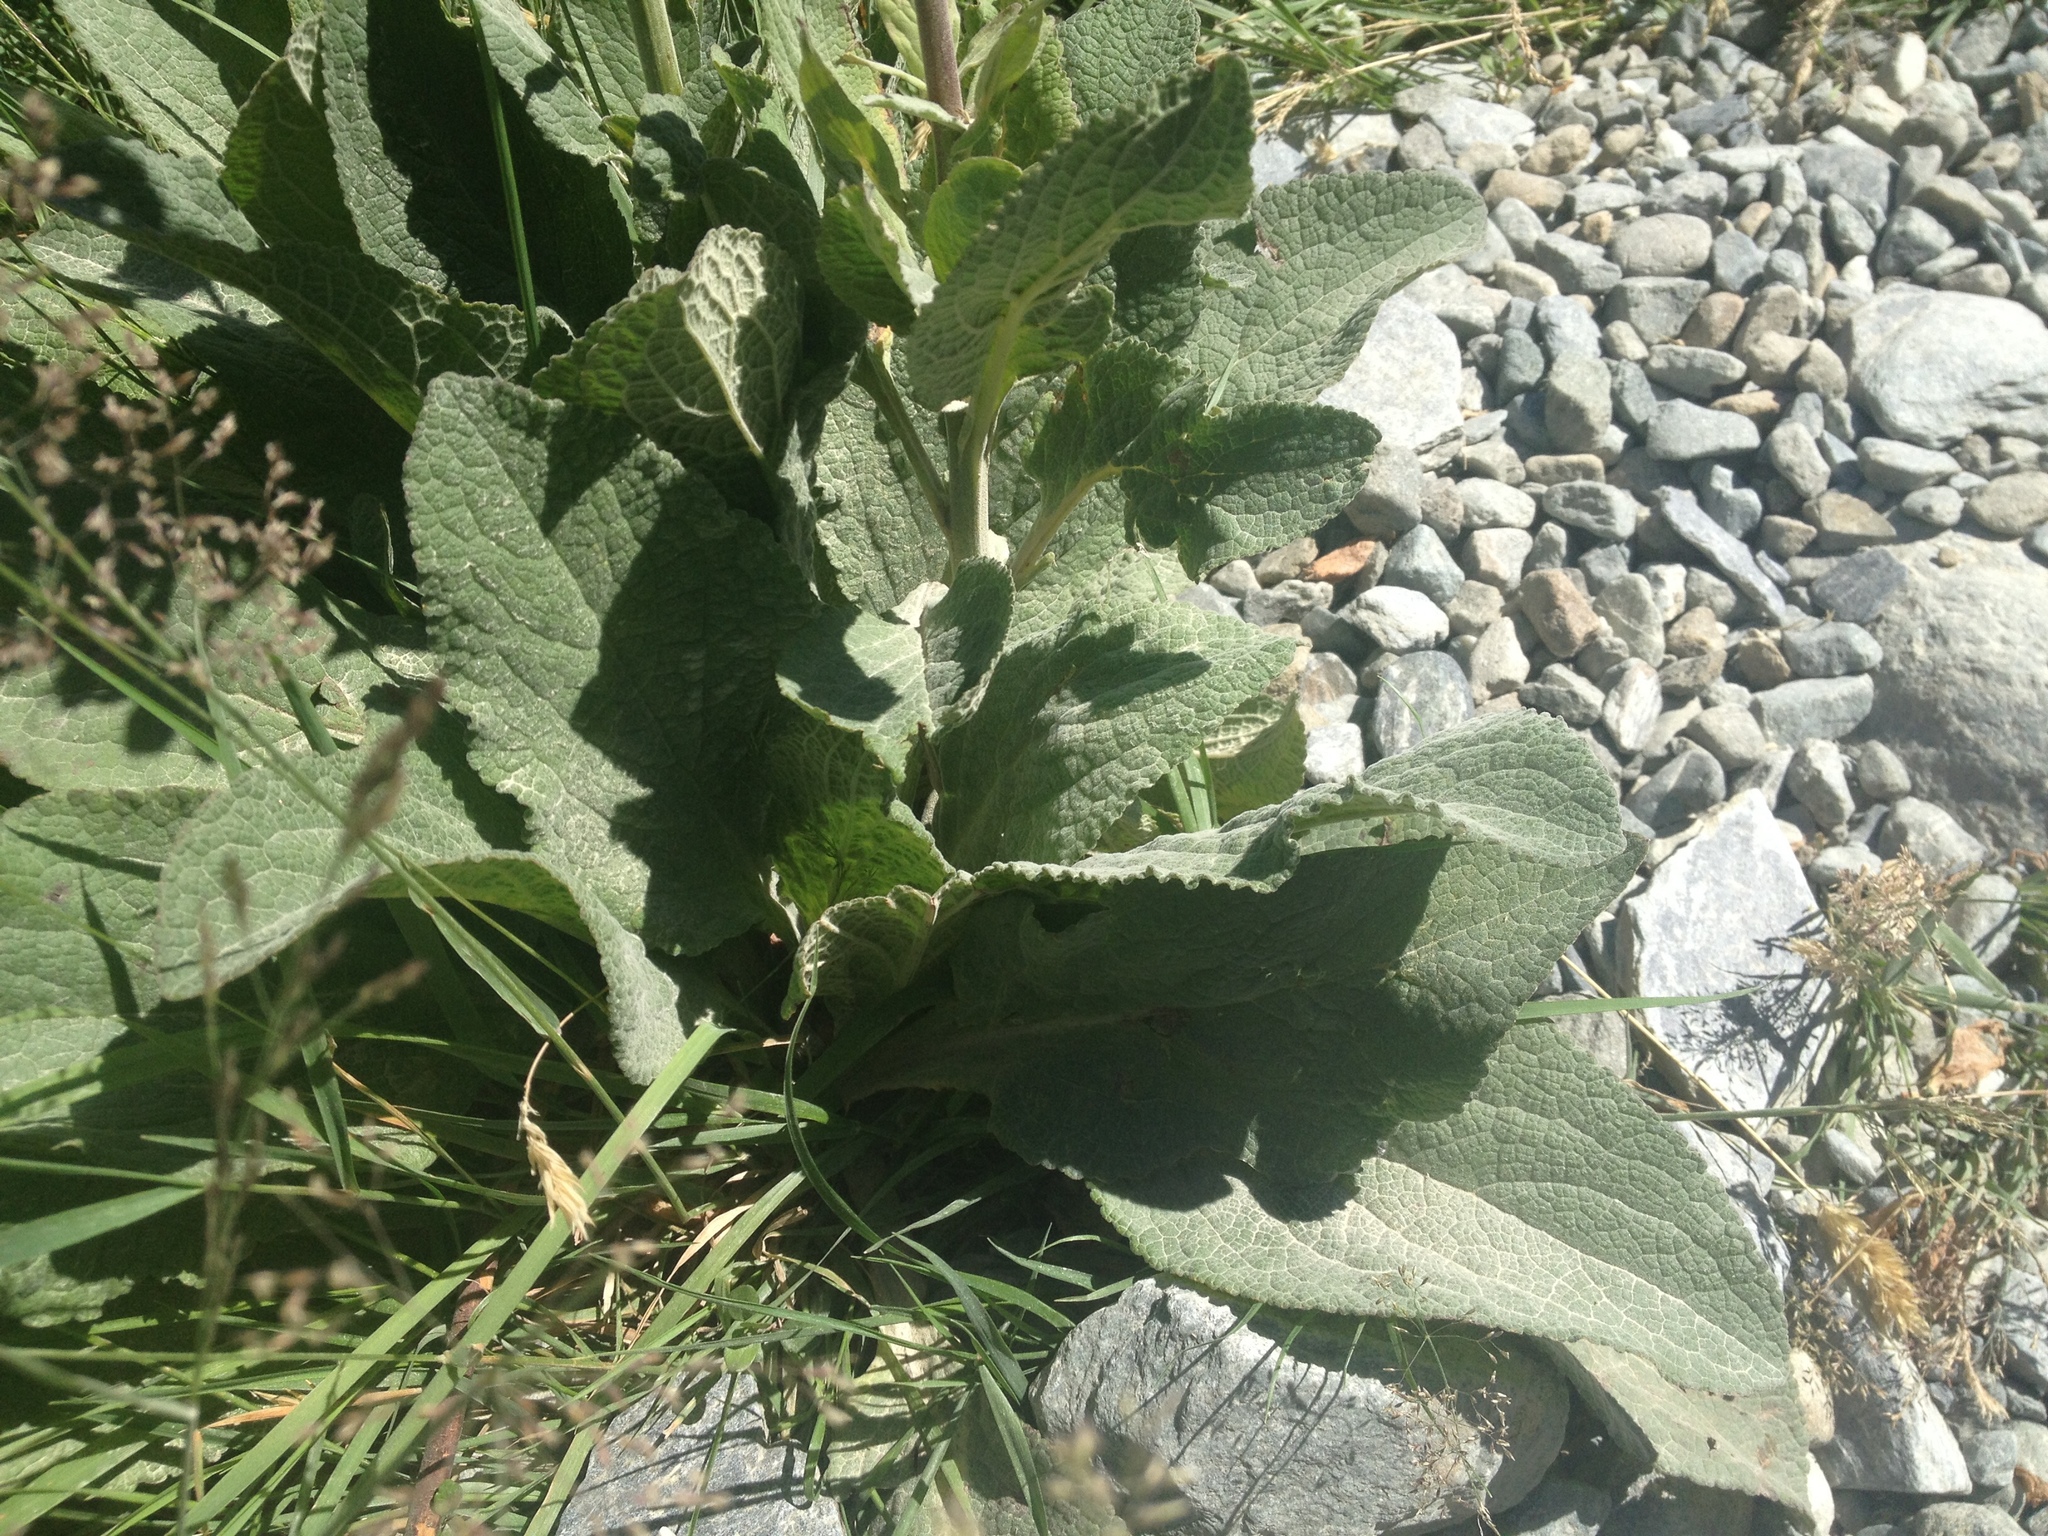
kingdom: Plantae
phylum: Tracheophyta
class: Magnoliopsida
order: Lamiales
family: Plantaginaceae
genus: Digitalis
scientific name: Digitalis purpurea
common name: Foxglove
